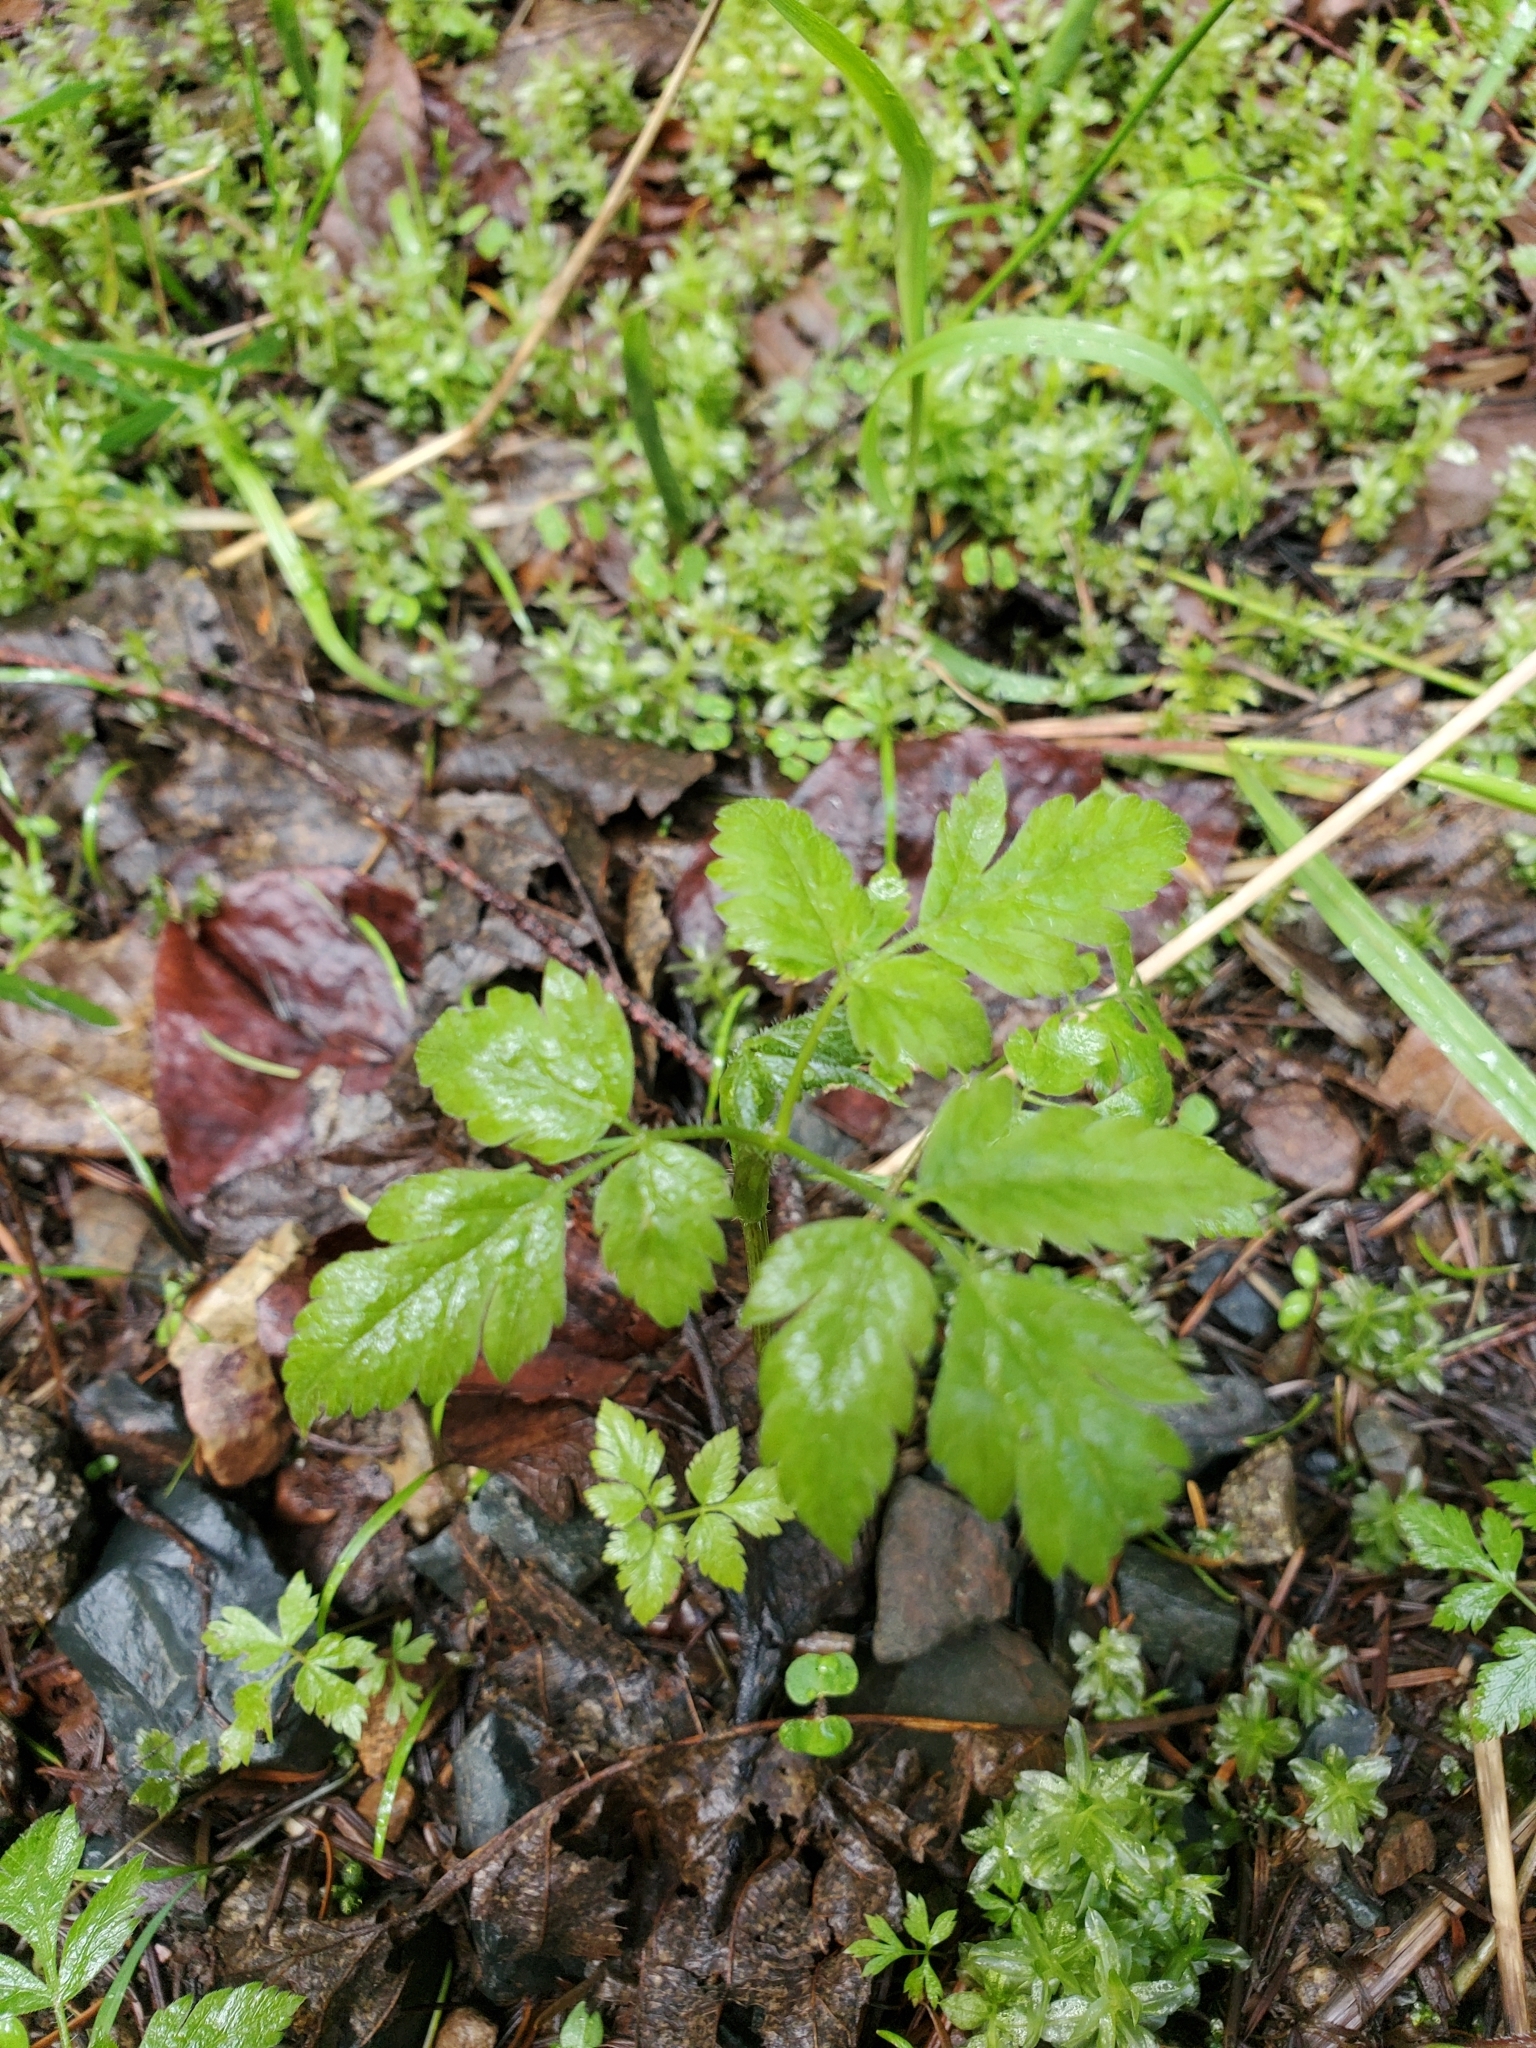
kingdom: Plantae
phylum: Tracheophyta
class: Magnoliopsida
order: Apiales
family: Apiaceae
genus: Osmorhiza
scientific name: Osmorhiza berteroi
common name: Mountain sweet cicely
